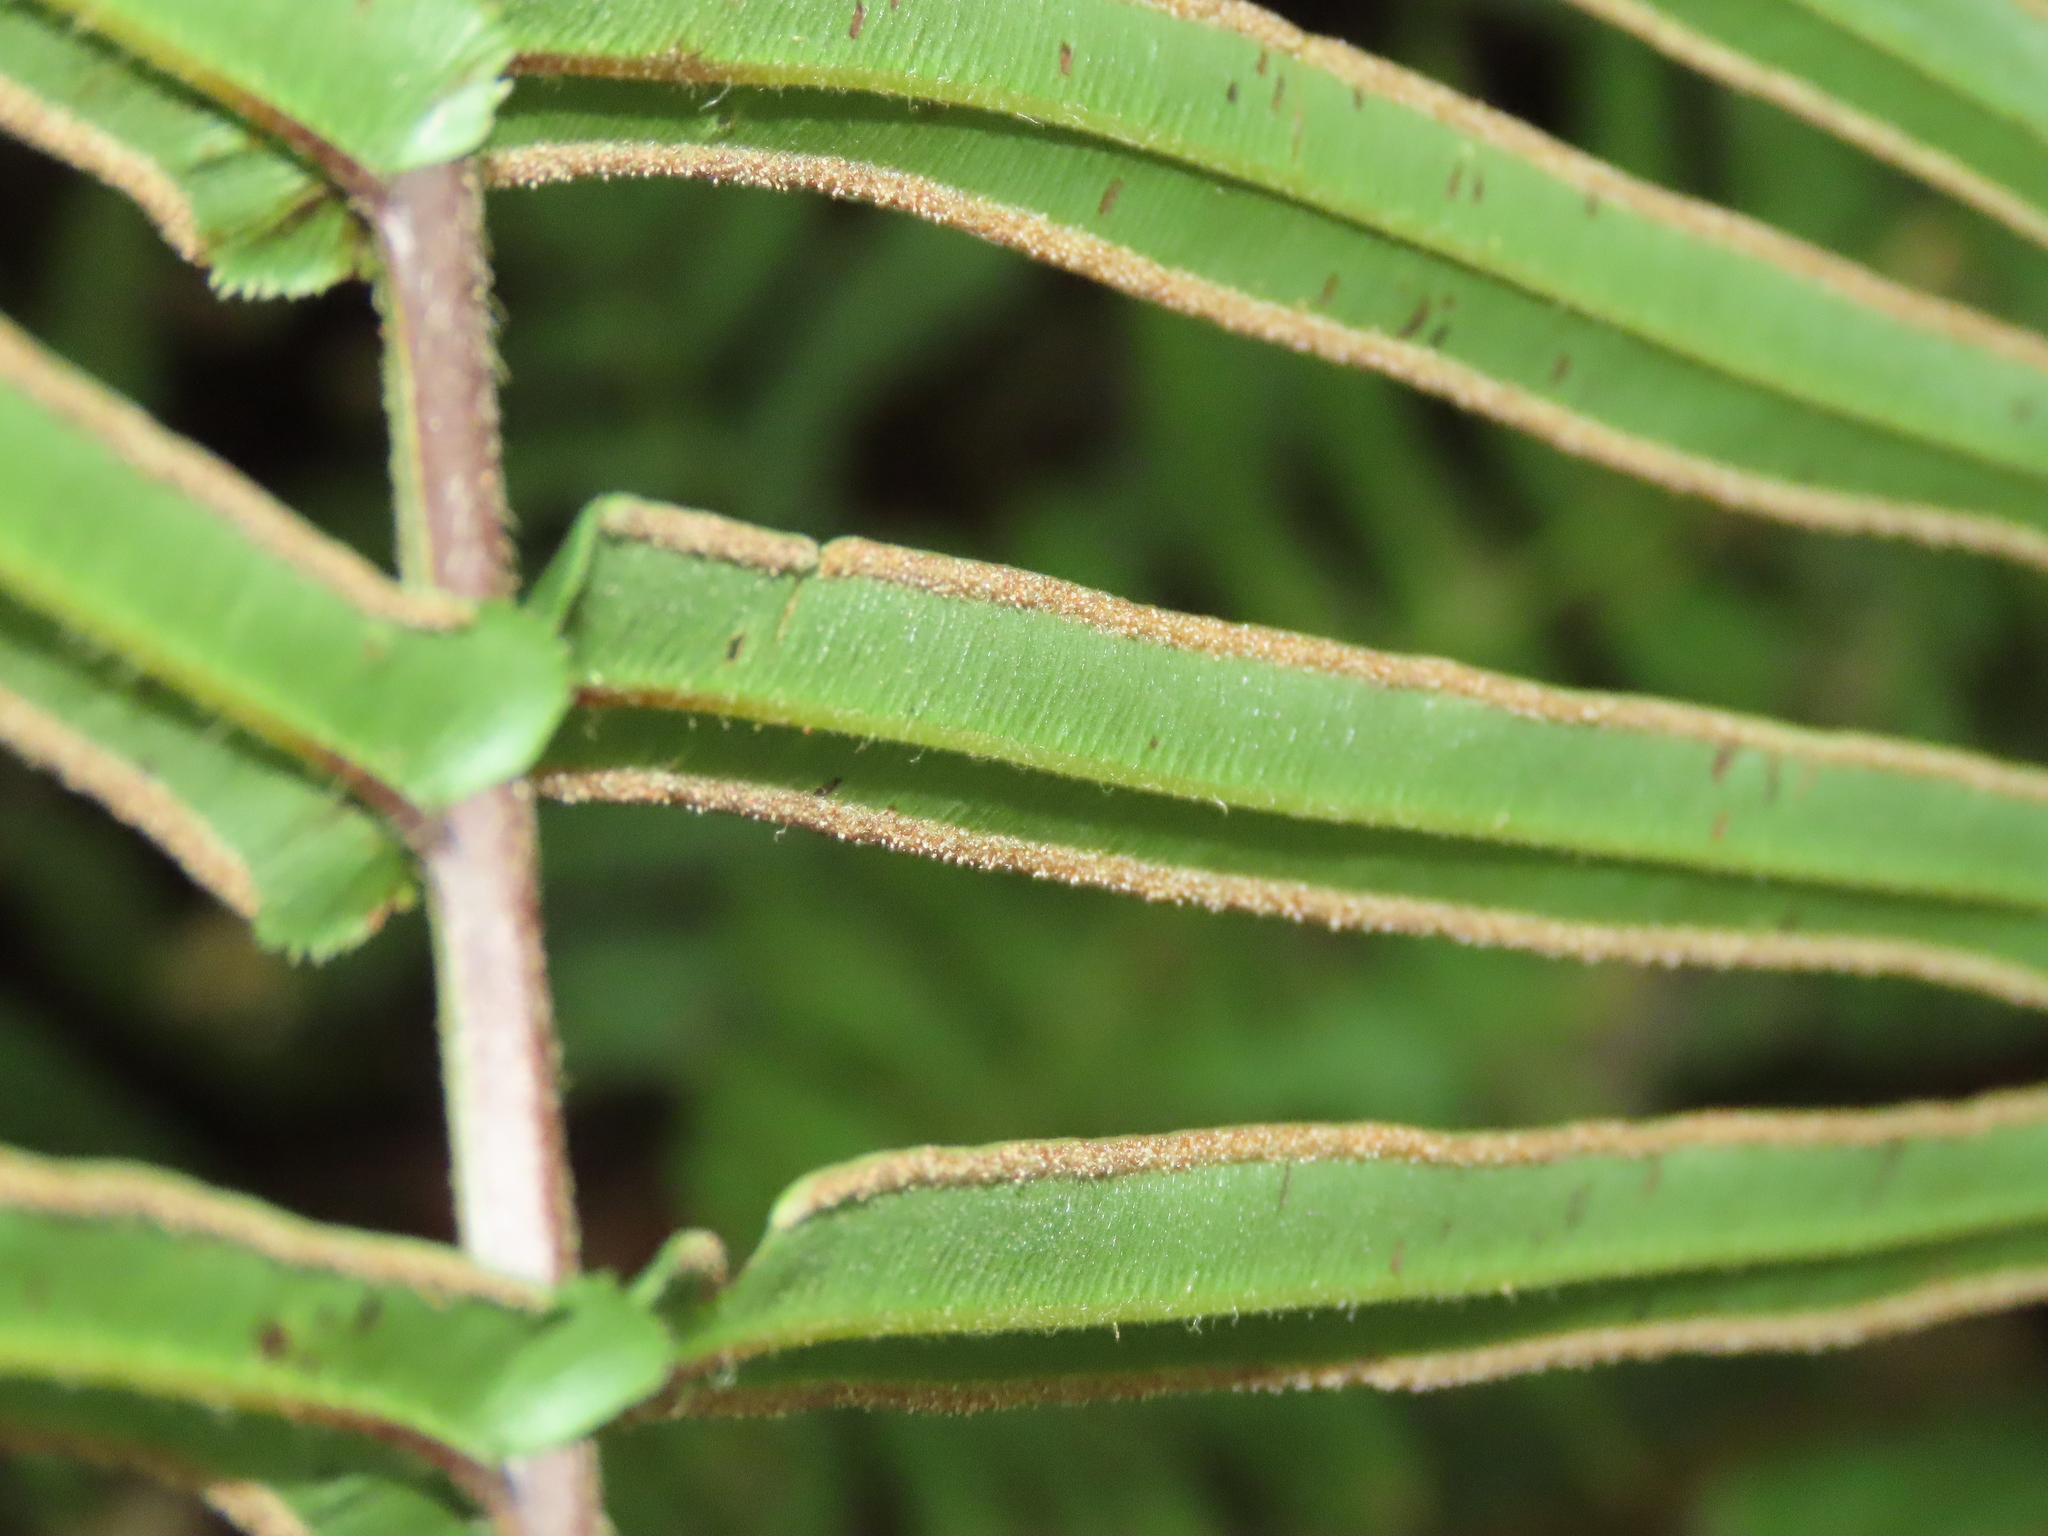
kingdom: Plantae
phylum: Tracheophyta
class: Polypodiopsida
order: Polypodiales
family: Pteridaceae
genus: Pteris
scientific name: Pteris vittata
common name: Ladder brake
